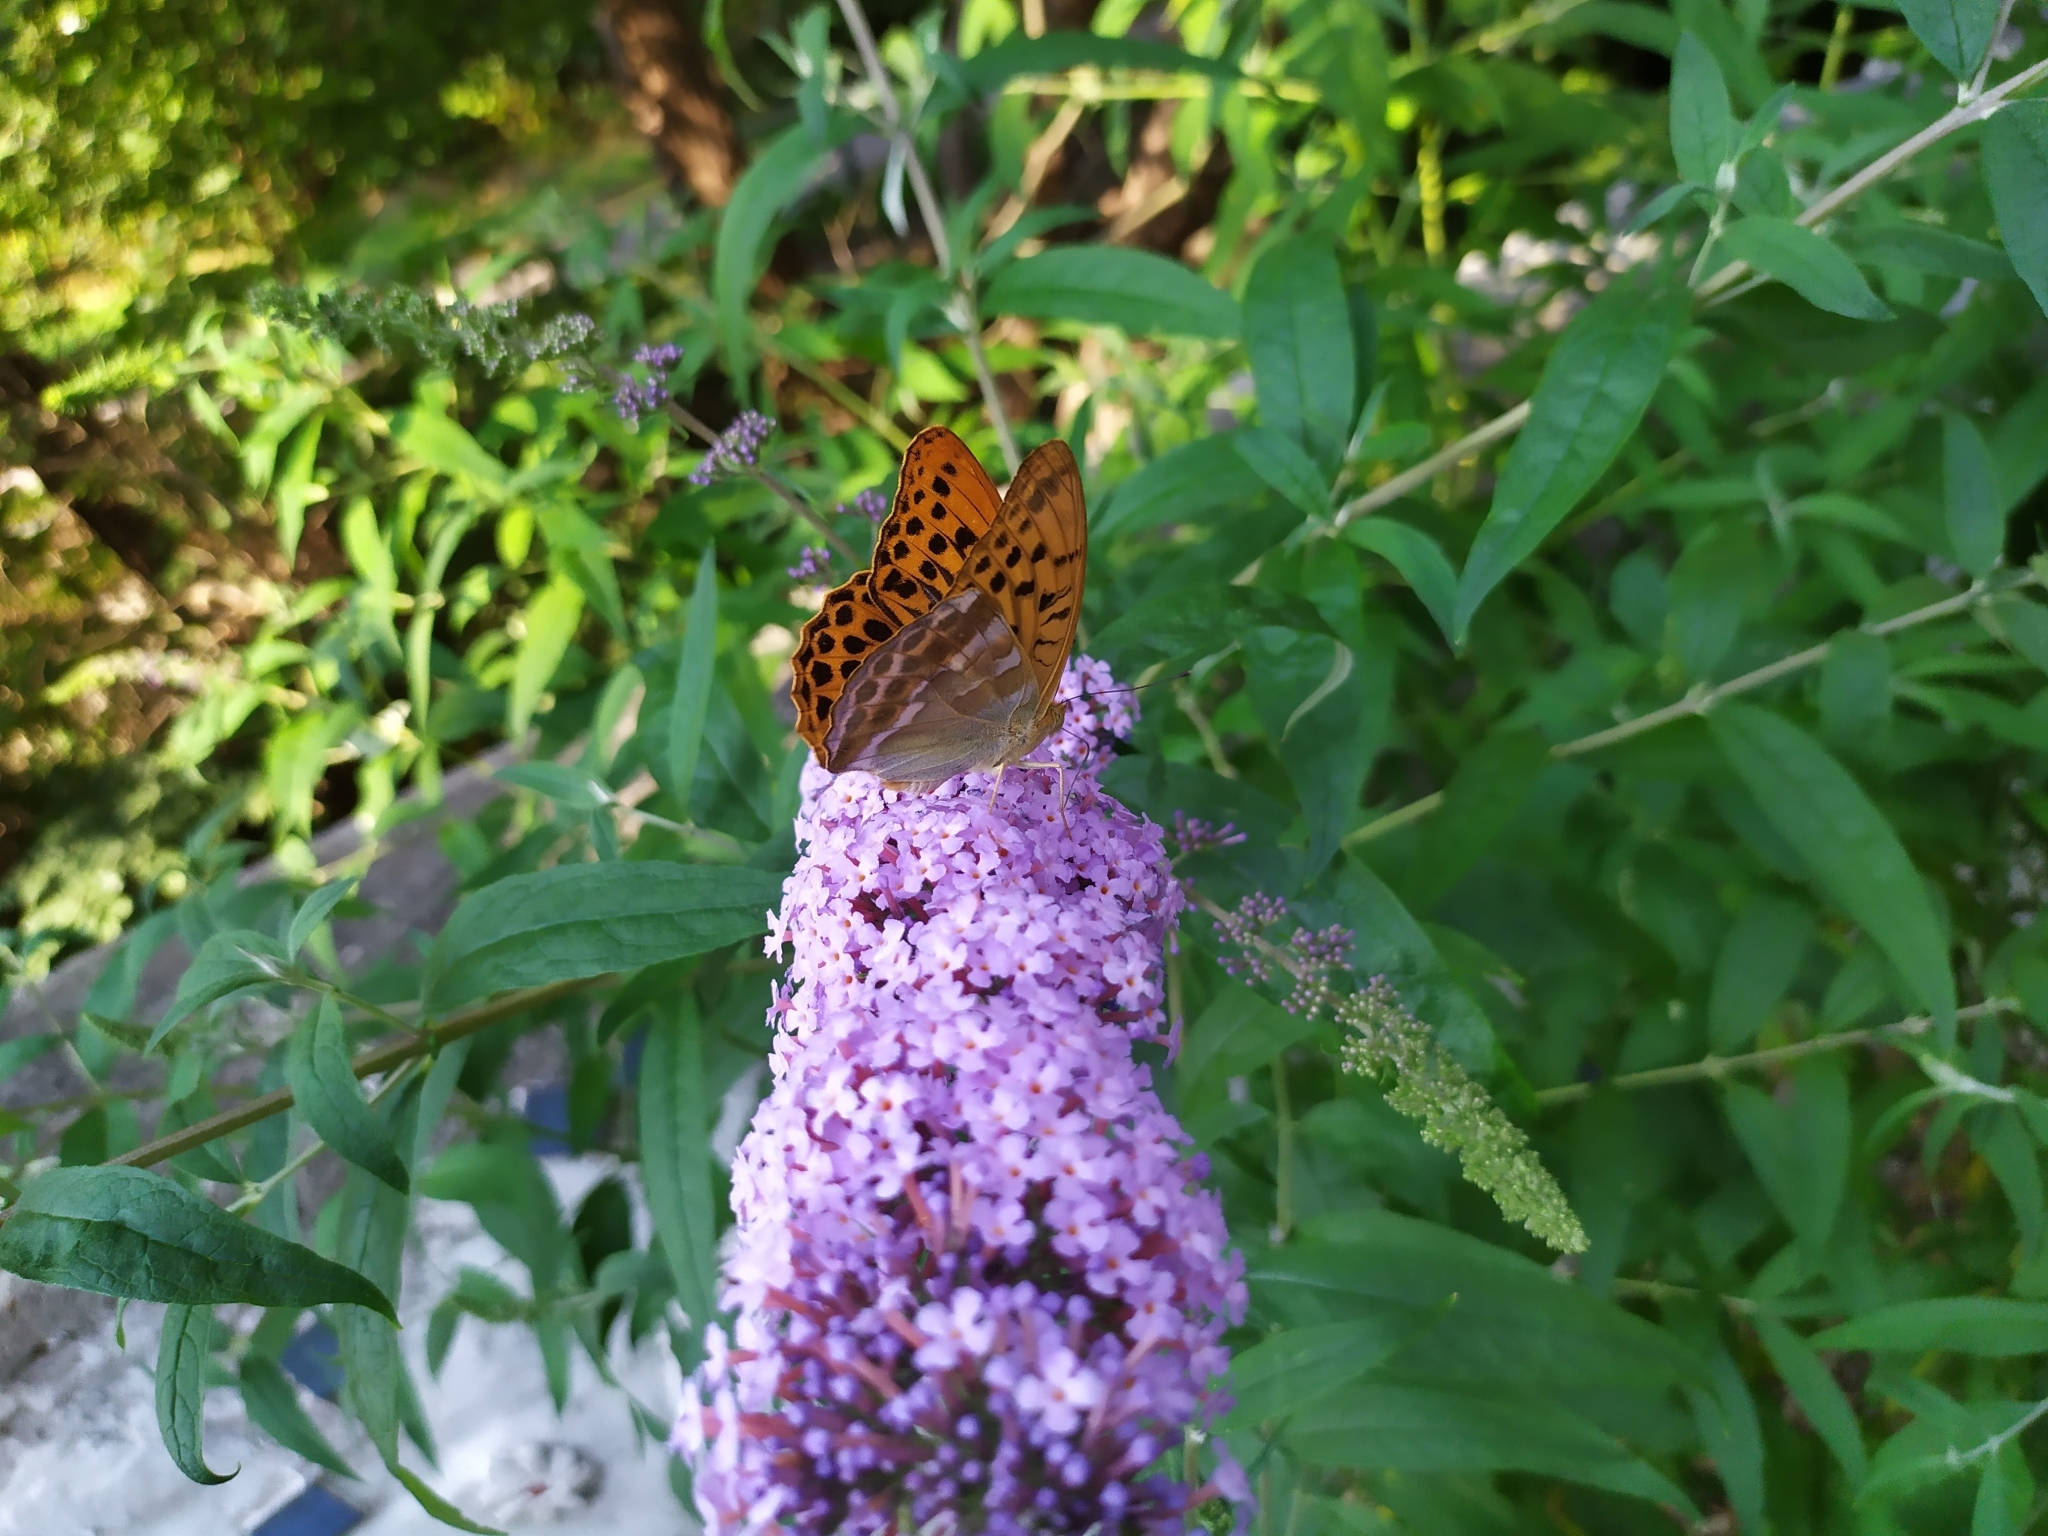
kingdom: Animalia
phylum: Arthropoda
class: Insecta
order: Lepidoptera
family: Nymphalidae
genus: Argynnis
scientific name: Argynnis paphia
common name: Silver-washed fritillary
